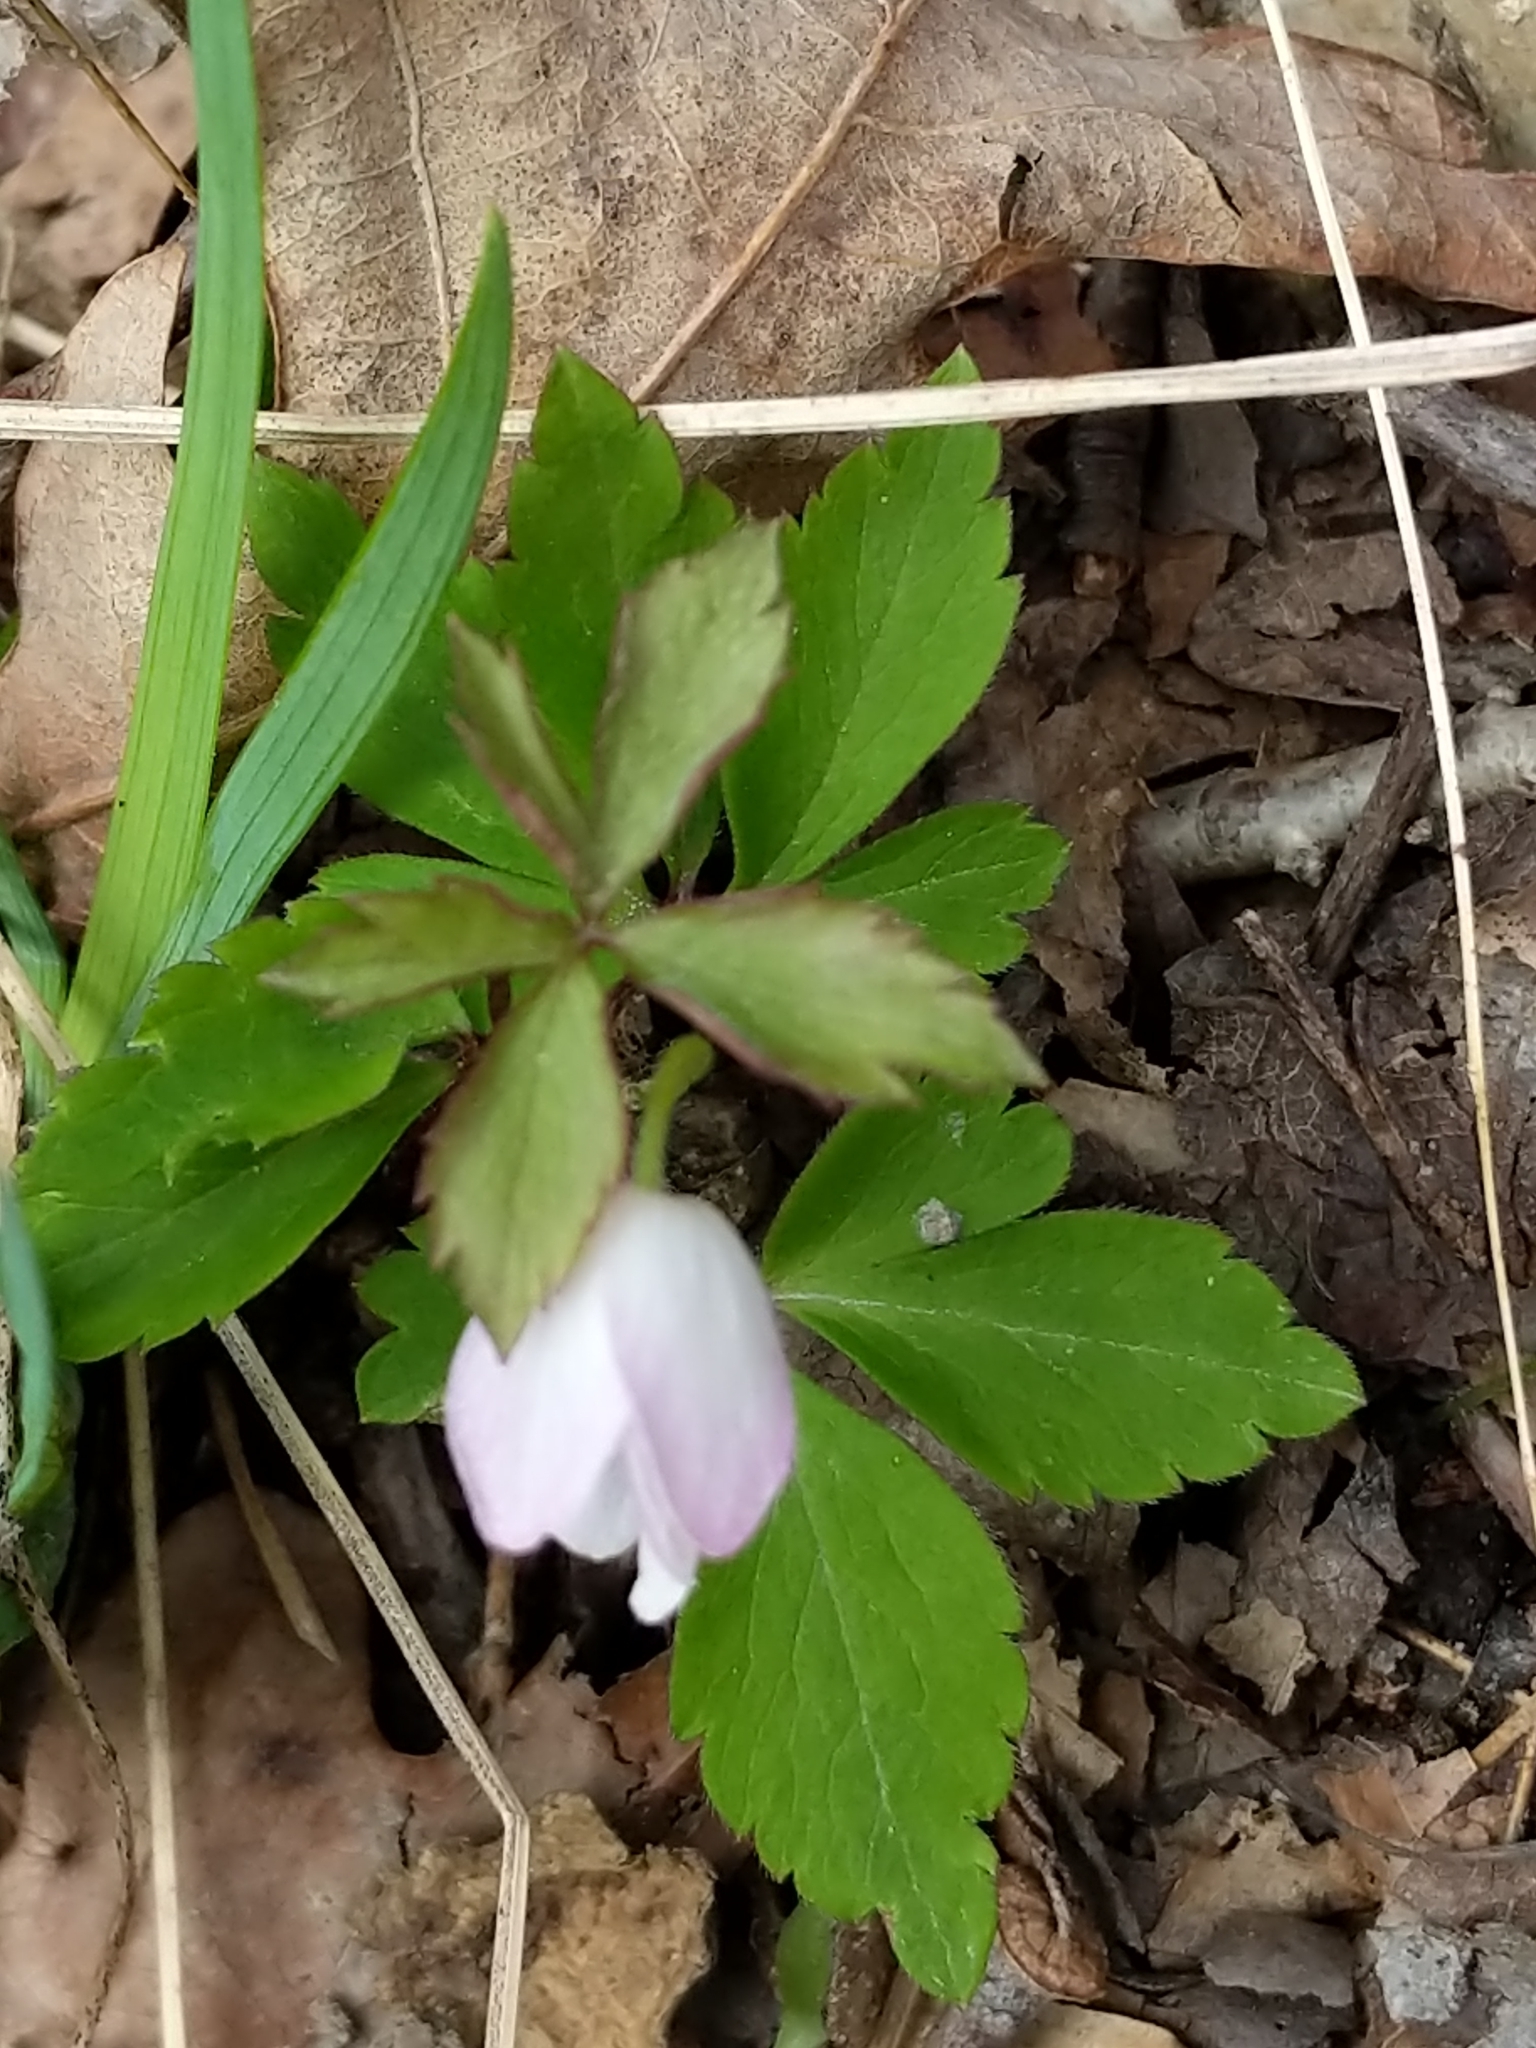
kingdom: Plantae
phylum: Tracheophyta
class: Magnoliopsida
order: Ranunculales
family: Ranunculaceae
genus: Anemone
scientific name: Anemone quinquefolia
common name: Wood anemone
